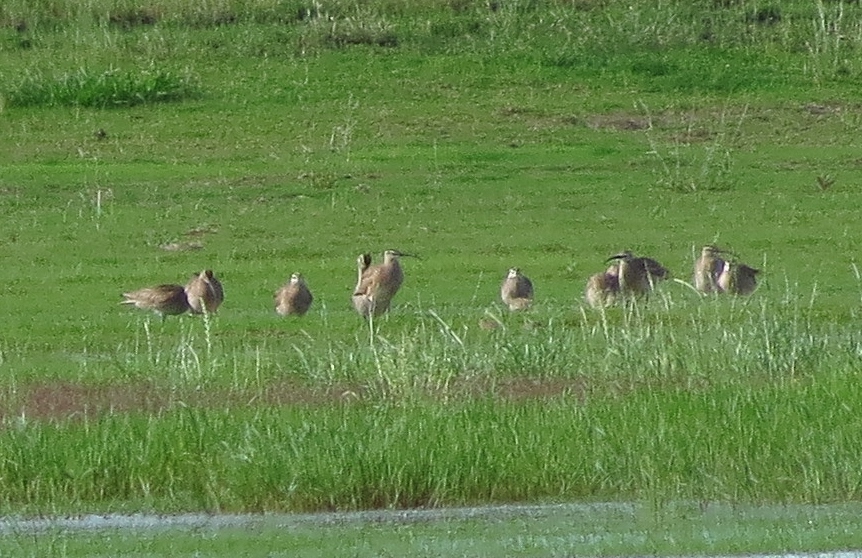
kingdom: Animalia
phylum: Chordata
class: Aves
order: Charadriiformes
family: Scolopacidae
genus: Numenius
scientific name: Numenius phaeopus
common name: Whimbrel
